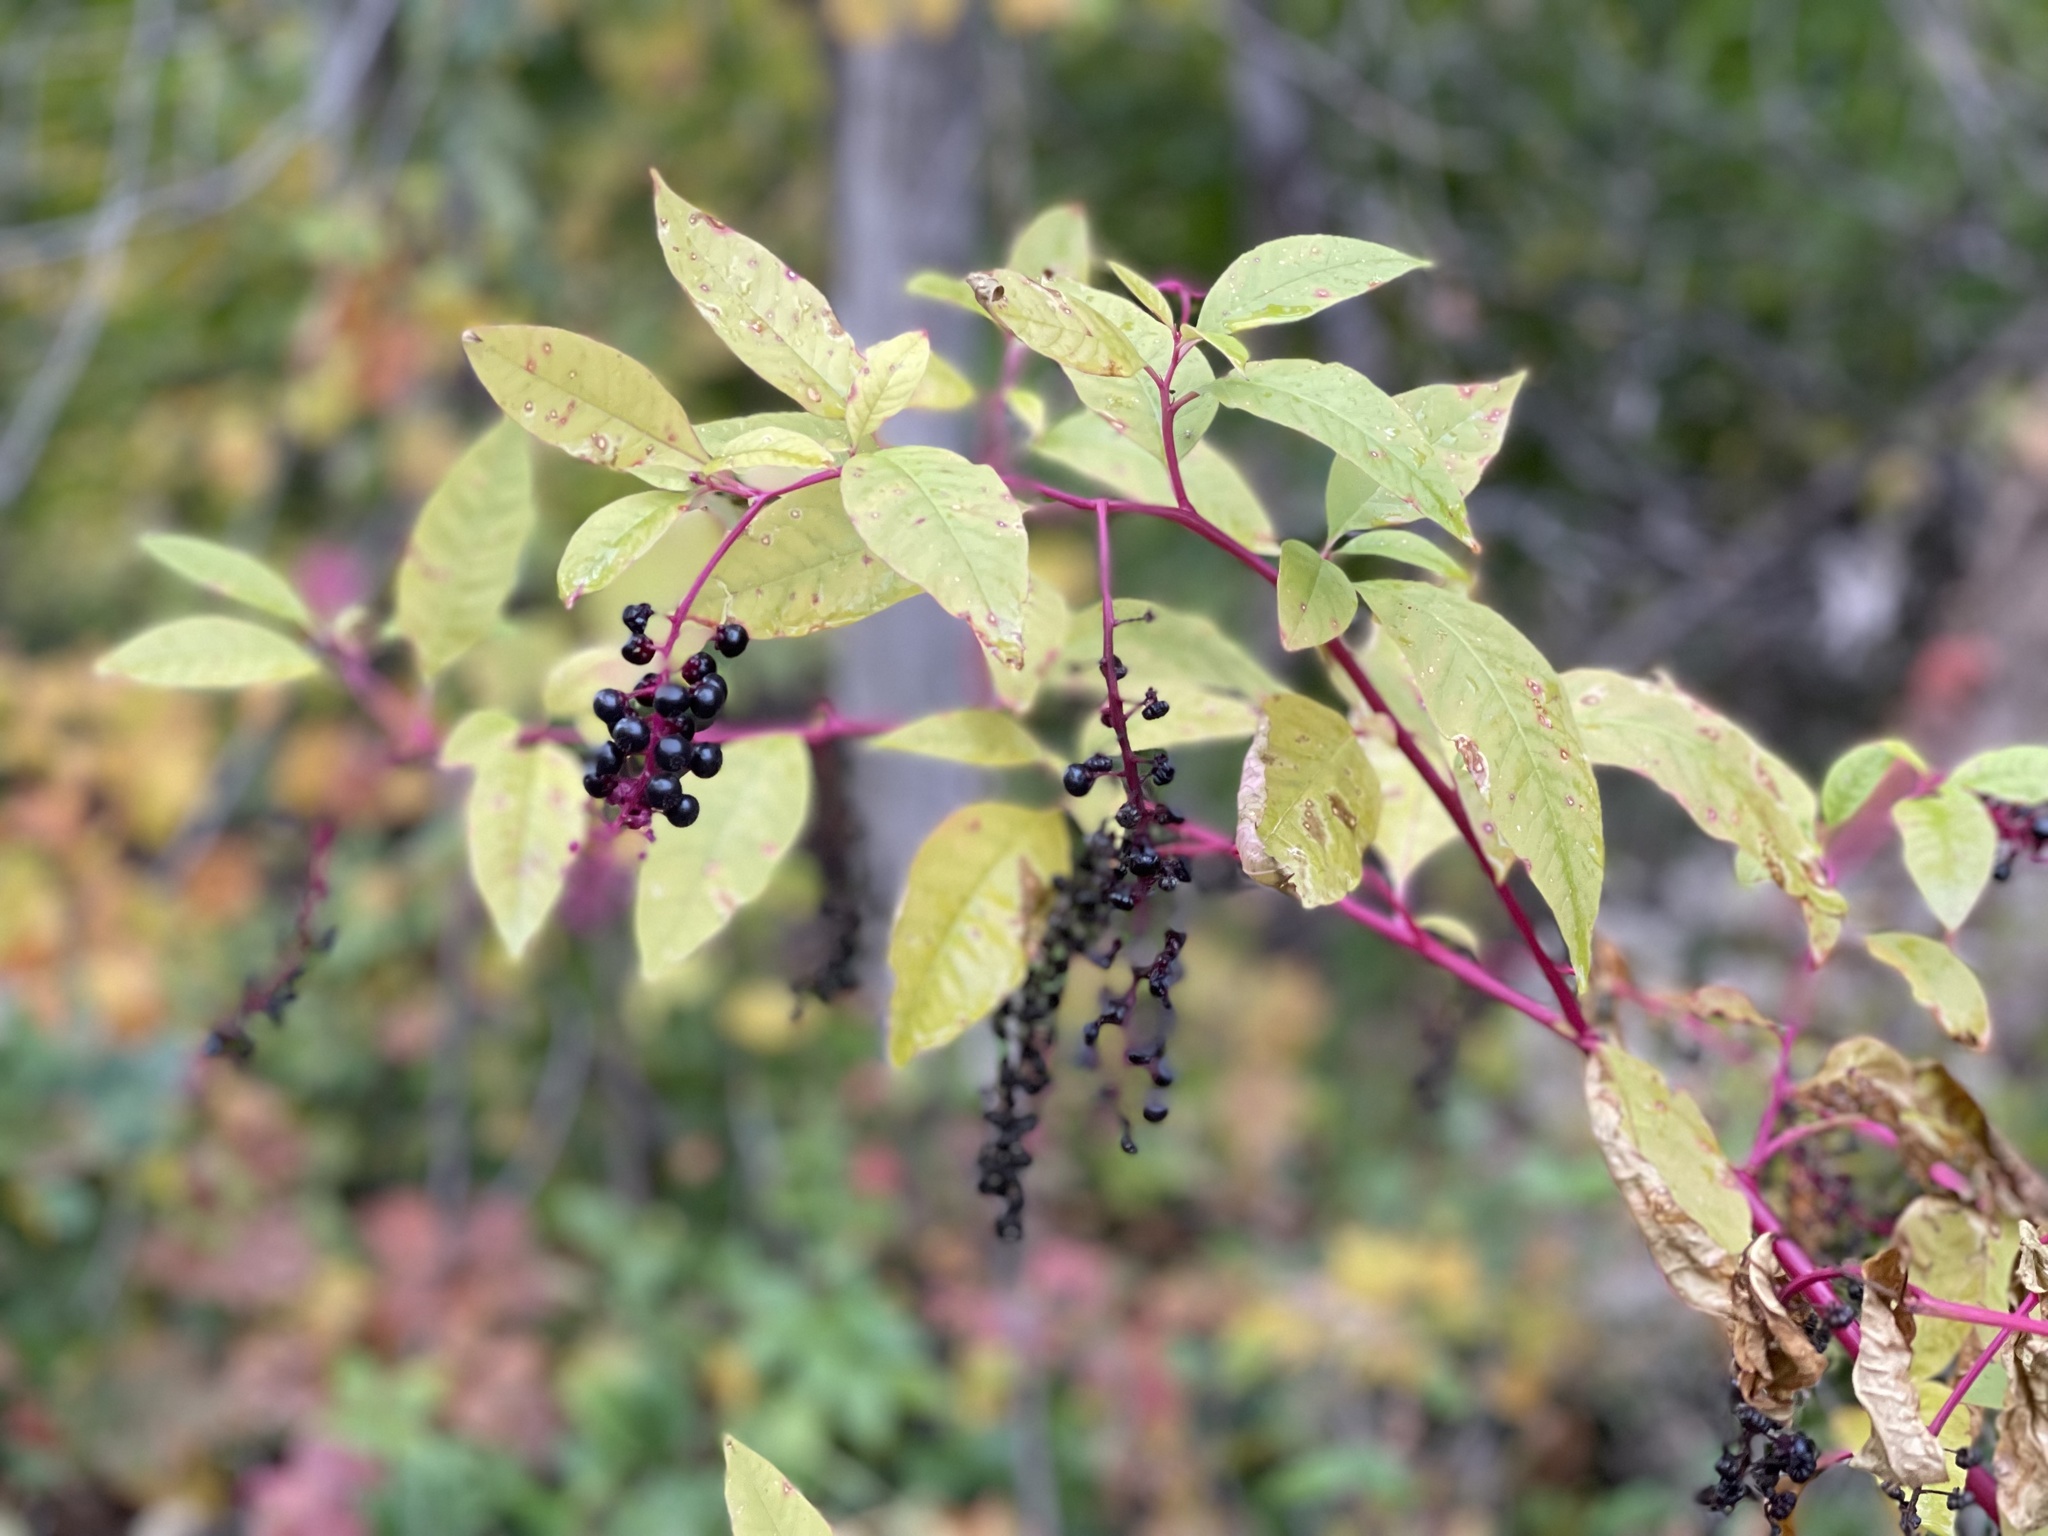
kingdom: Plantae
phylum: Tracheophyta
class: Magnoliopsida
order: Caryophyllales
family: Phytolaccaceae
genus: Phytolacca
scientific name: Phytolacca americana
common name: American pokeweed
